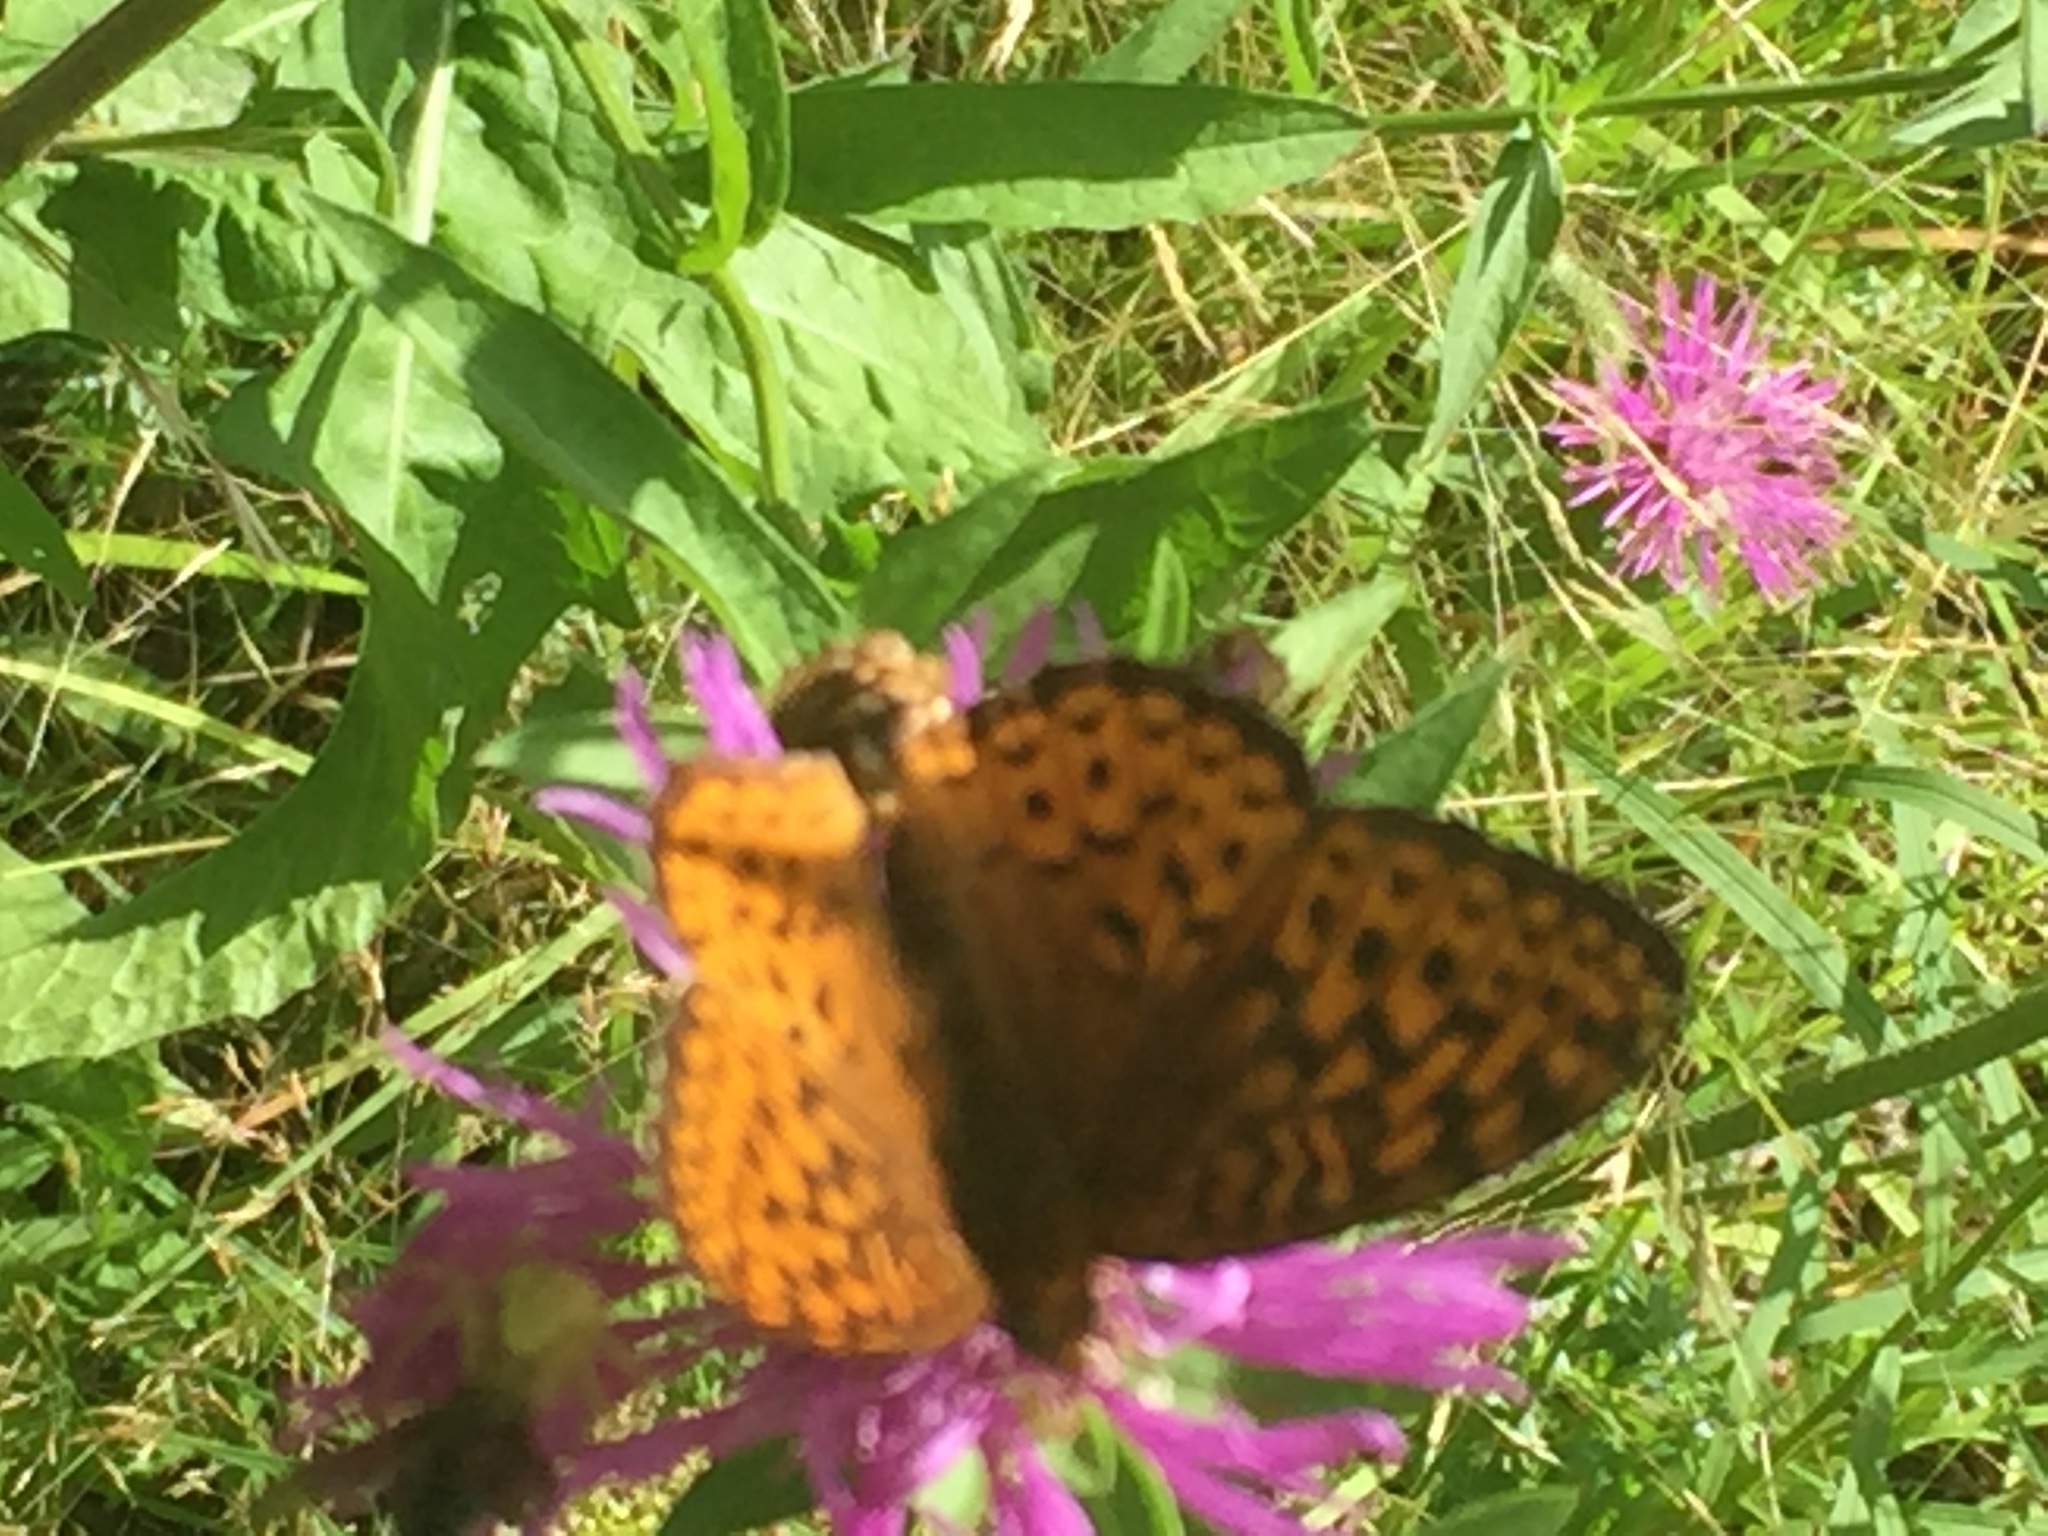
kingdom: Animalia
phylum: Arthropoda
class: Insecta
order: Lepidoptera
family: Nymphalidae
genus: Speyeria
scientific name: Speyeria atlantis
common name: Atlantis fritillary
